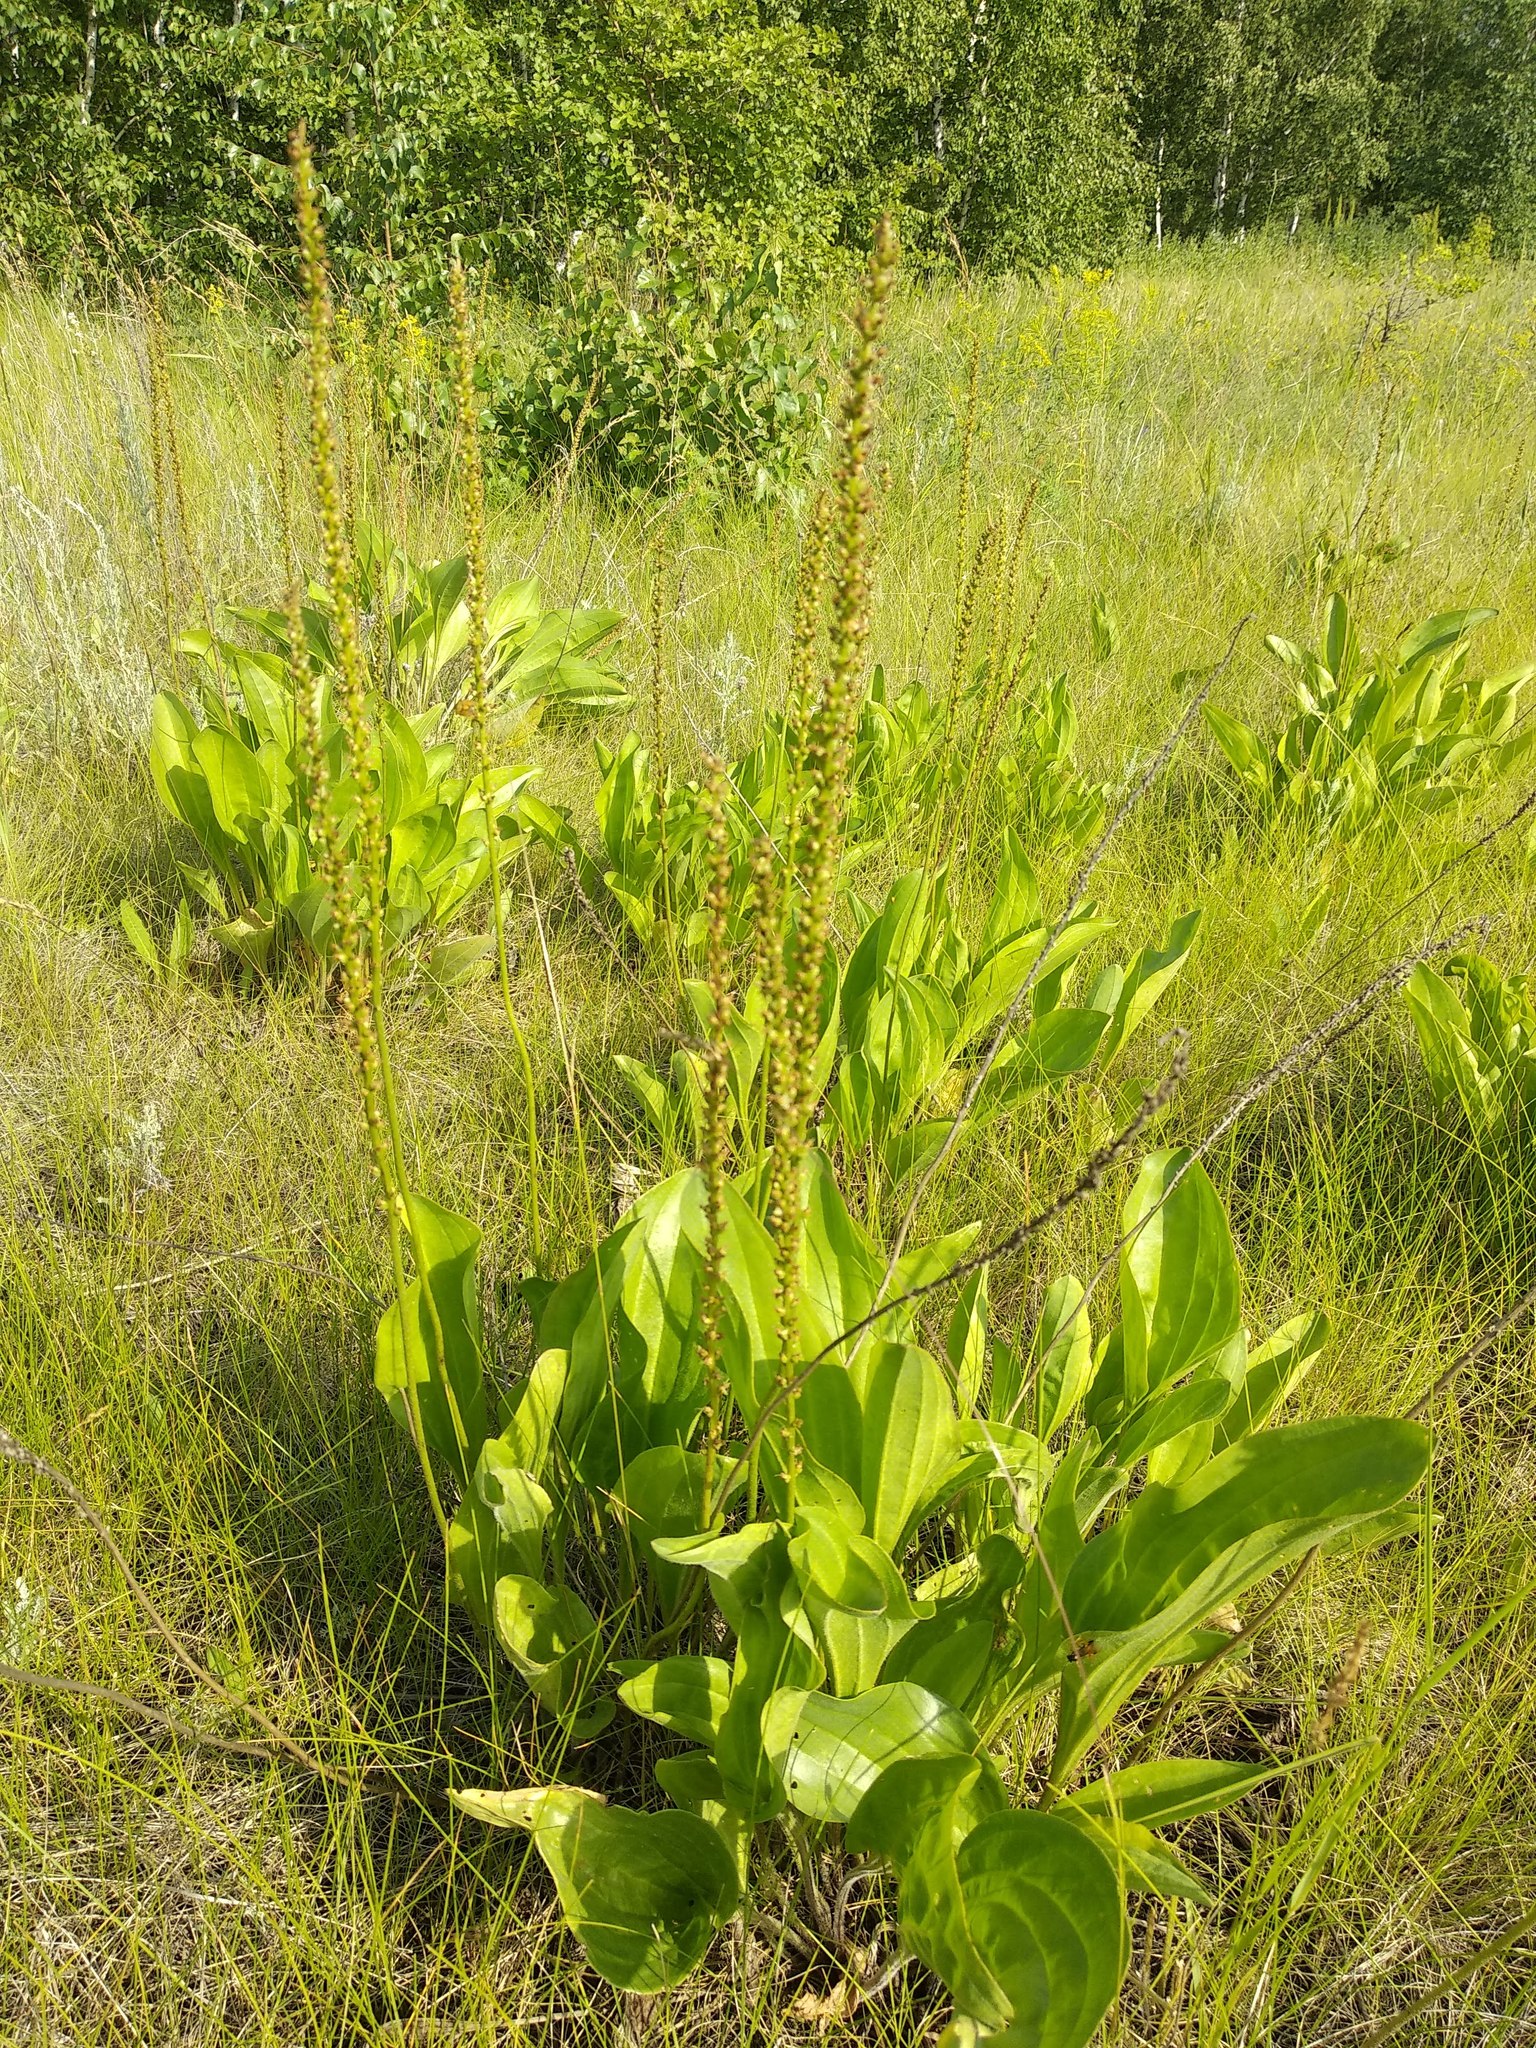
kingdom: Plantae
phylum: Tracheophyta
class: Magnoliopsida
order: Lamiales
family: Plantaginaceae
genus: Plantago
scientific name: Plantago cornuti
